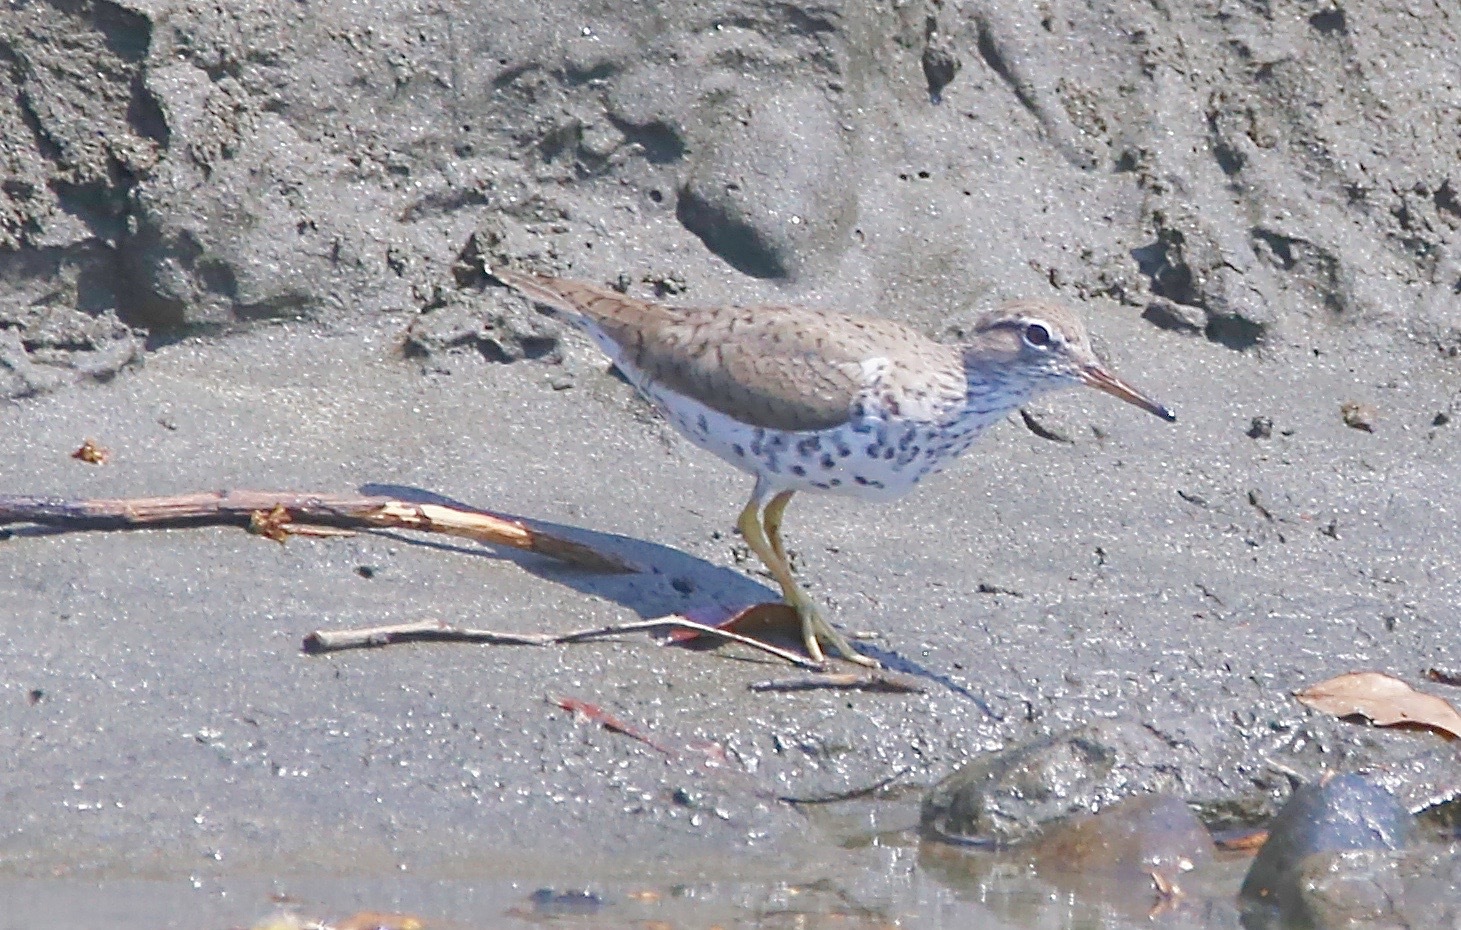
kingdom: Animalia
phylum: Chordata
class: Aves
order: Charadriiformes
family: Scolopacidae
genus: Actitis
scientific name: Actitis macularius
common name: Spotted sandpiper
